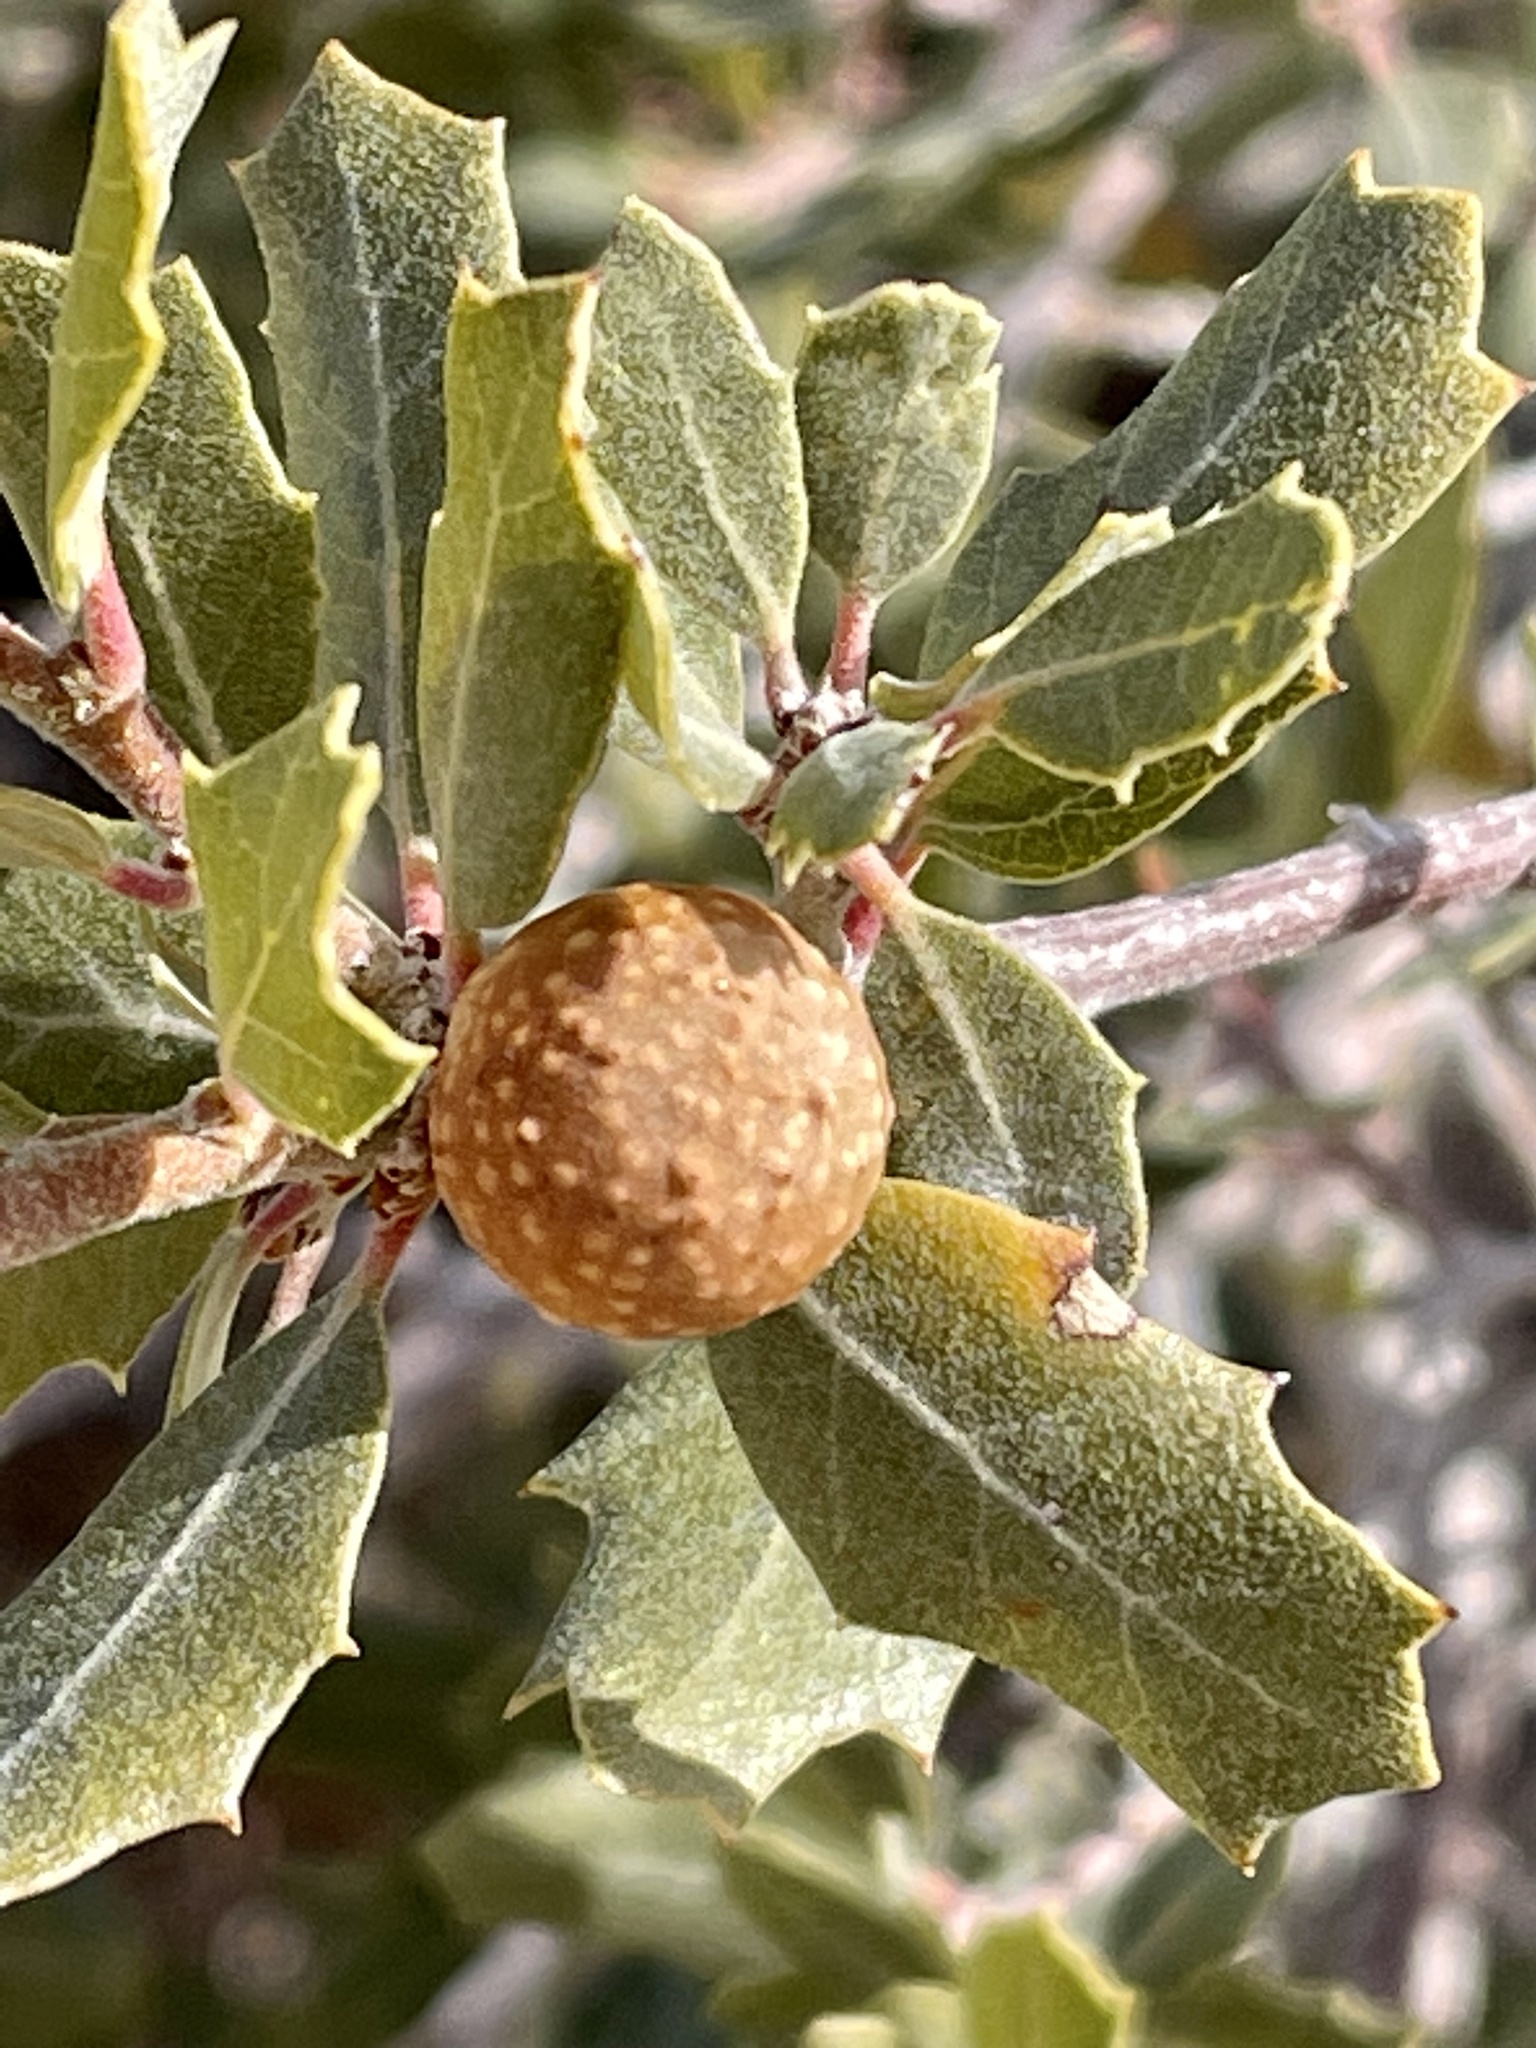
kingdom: Plantae
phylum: Tracheophyta
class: Magnoliopsida
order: Fagales
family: Fagaceae
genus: Quercus
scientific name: Quercus cornelius-mulleri
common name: Muller oak
